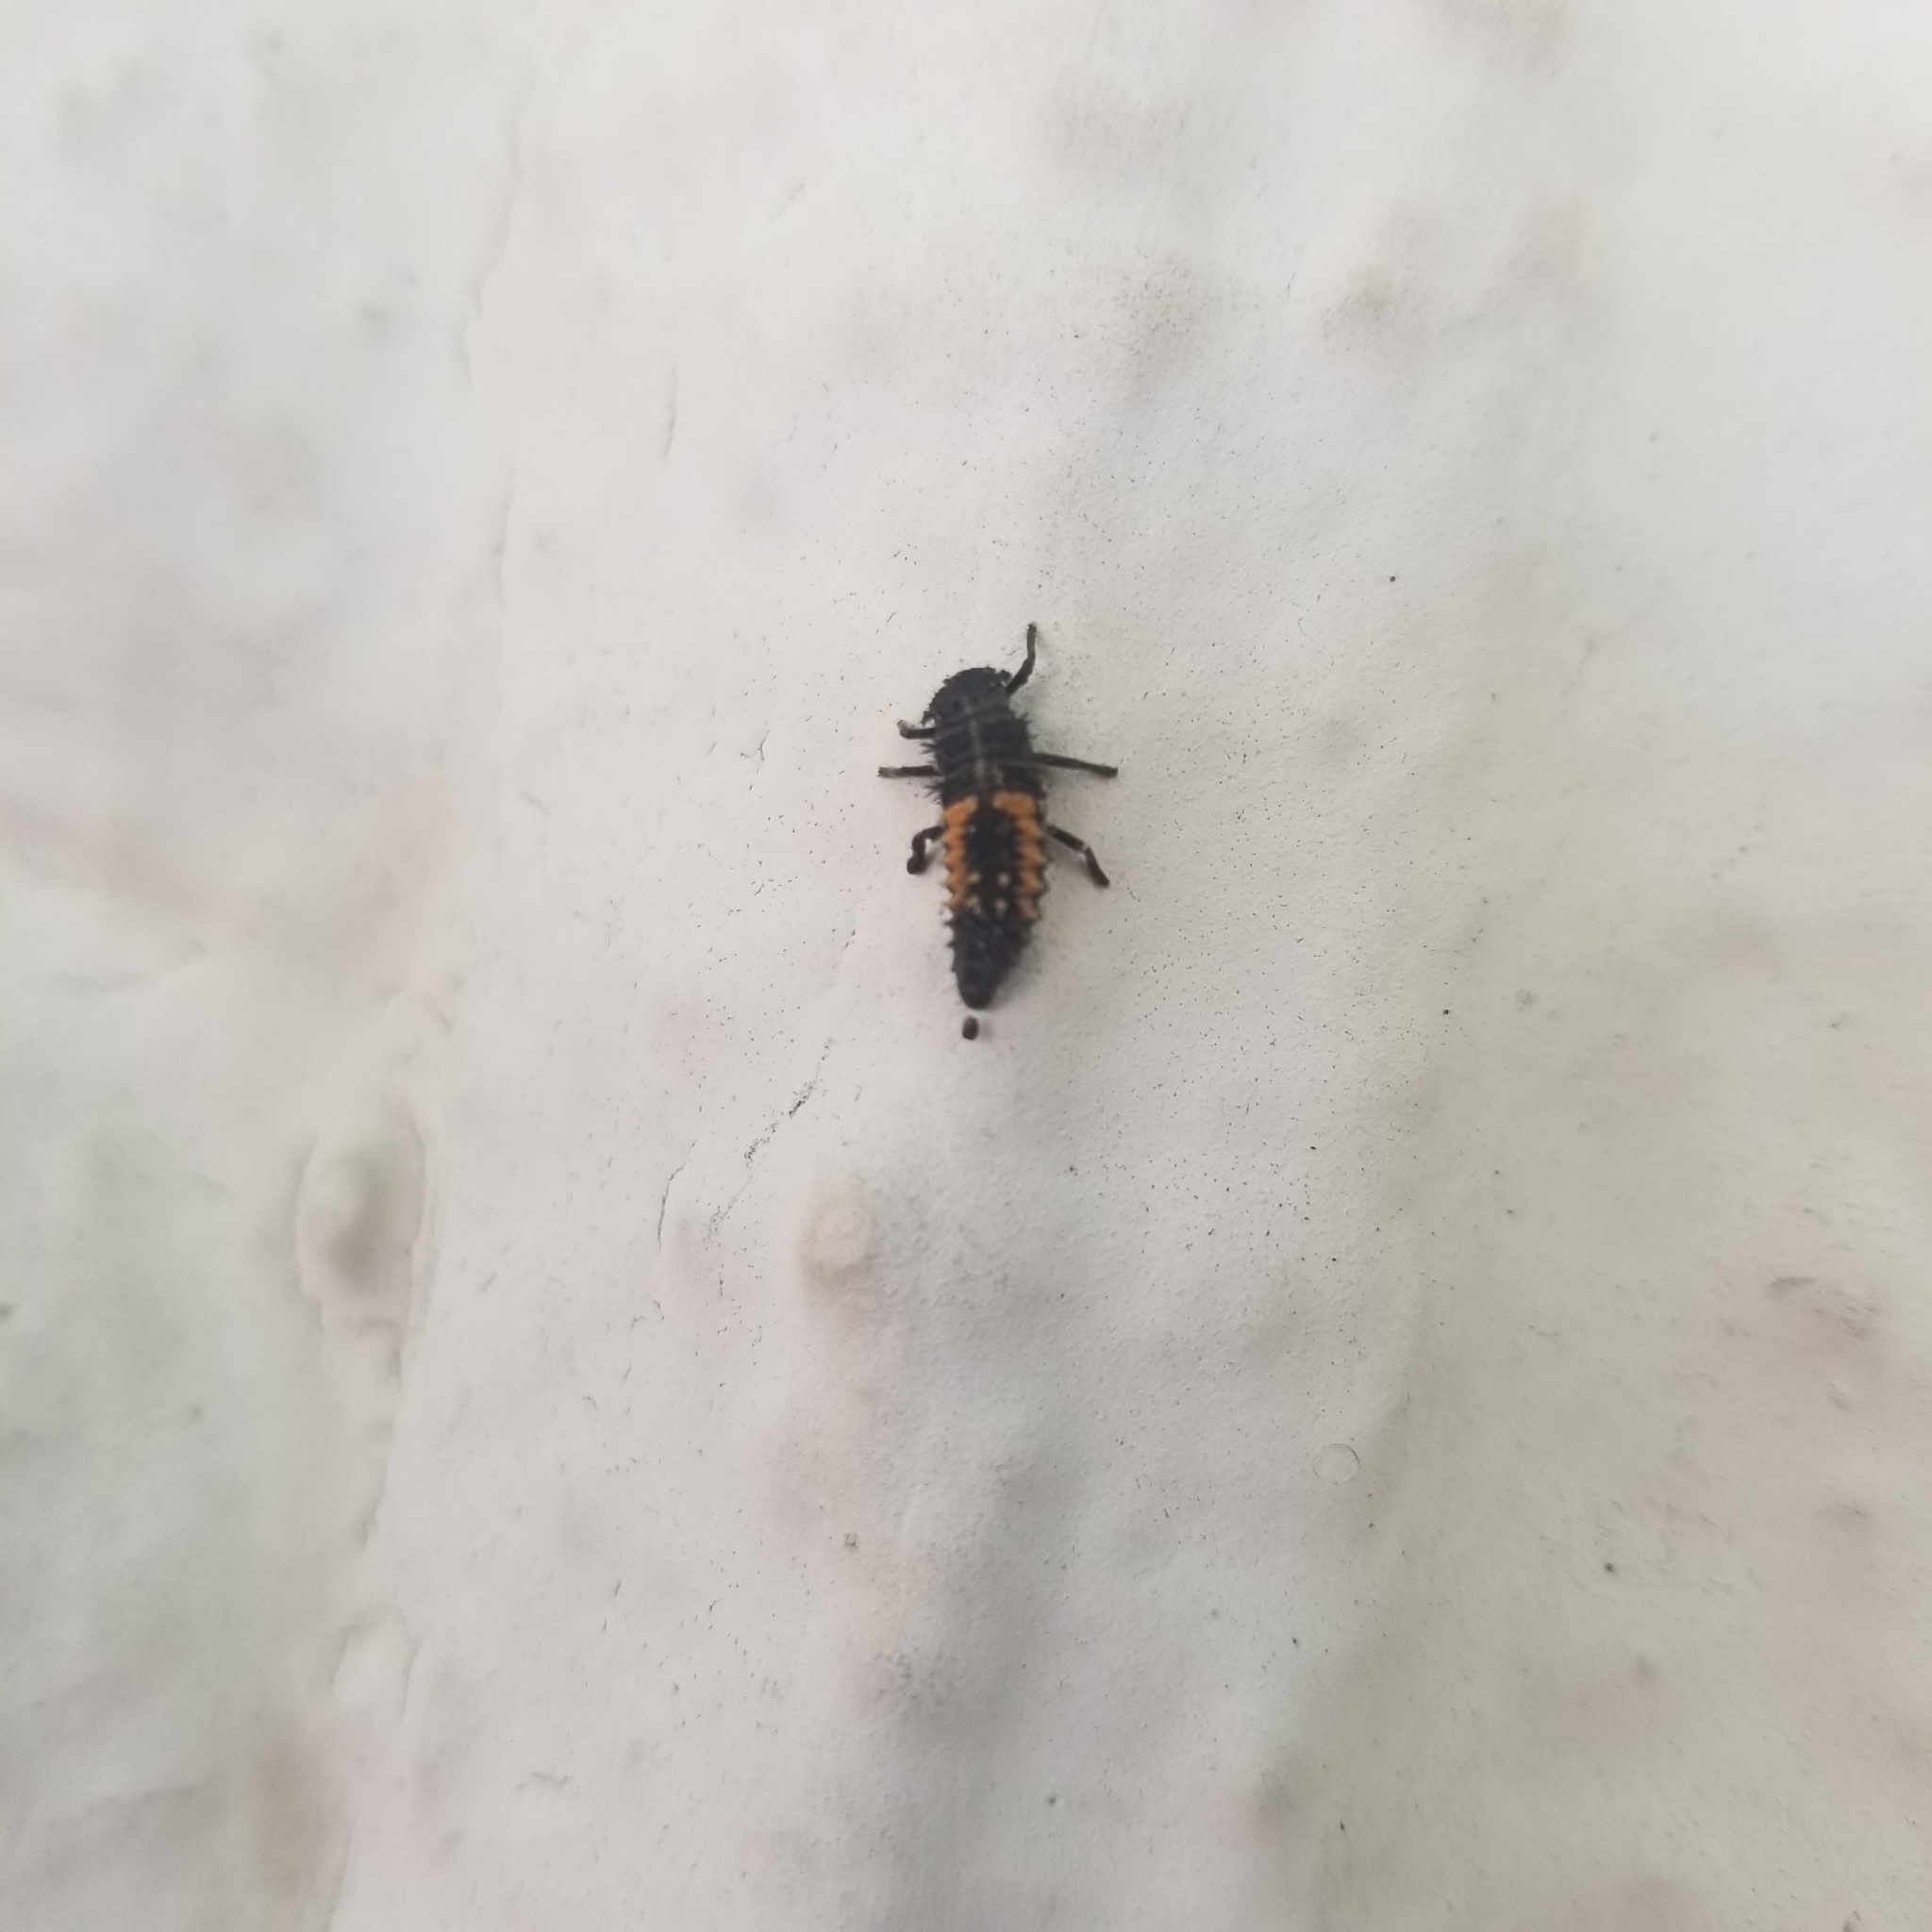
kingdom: Animalia
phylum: Arthropoda
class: Insecta
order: Coleoptera
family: Coccinellidae
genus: Harmonia
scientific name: Harmonia axyridis
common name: Harlequin ladybird
